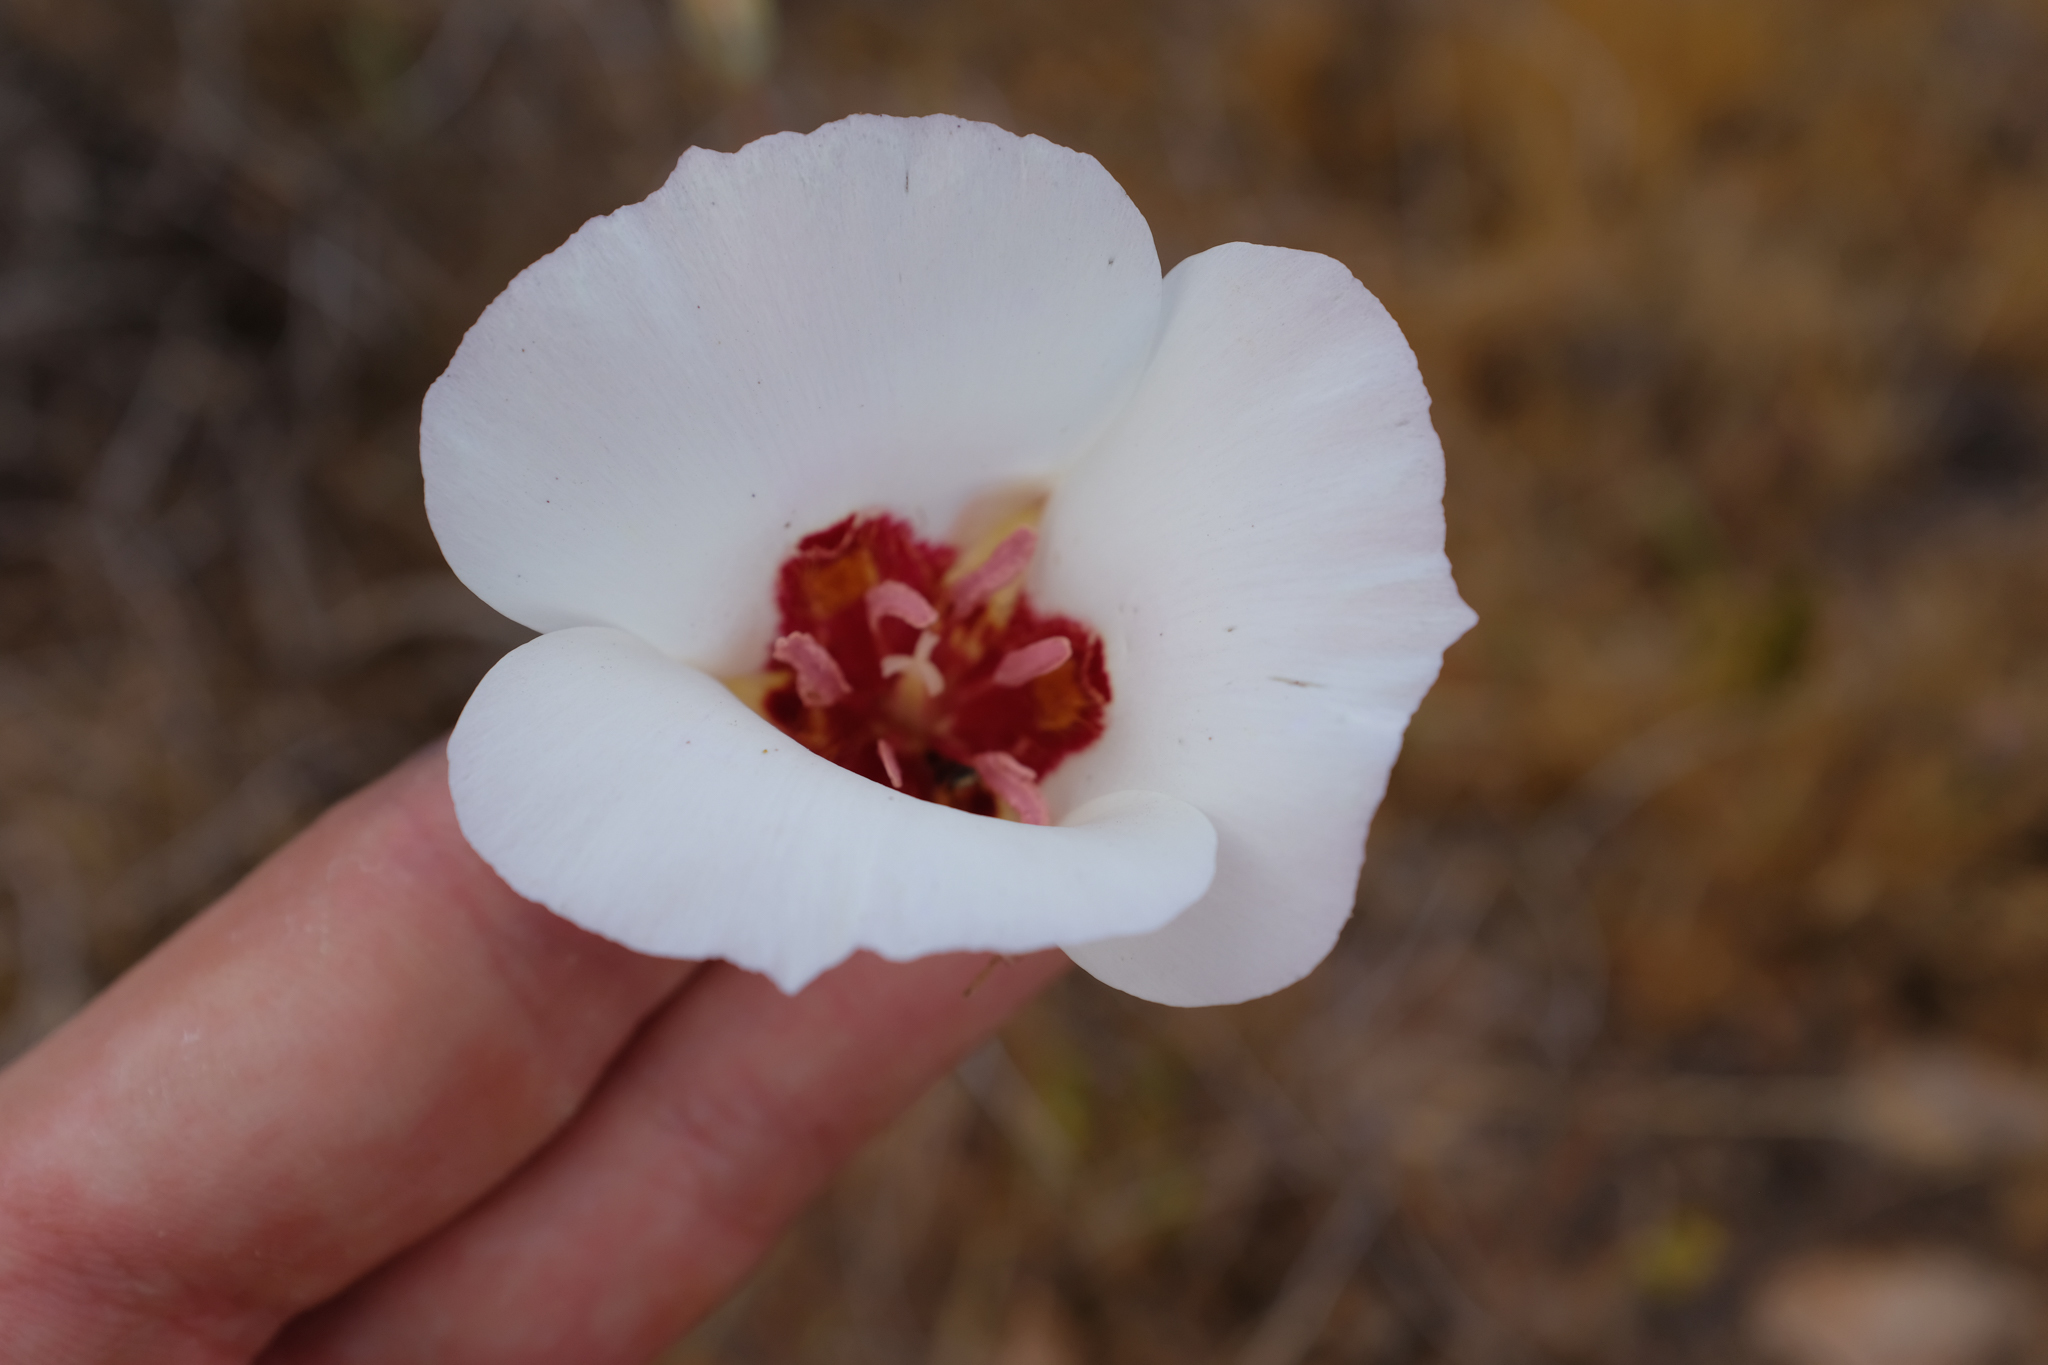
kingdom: Plantae
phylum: Tracheophyta
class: Liliopsida
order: Liliales
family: Liliaceae
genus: Calochortus
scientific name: Calochortus simulans
